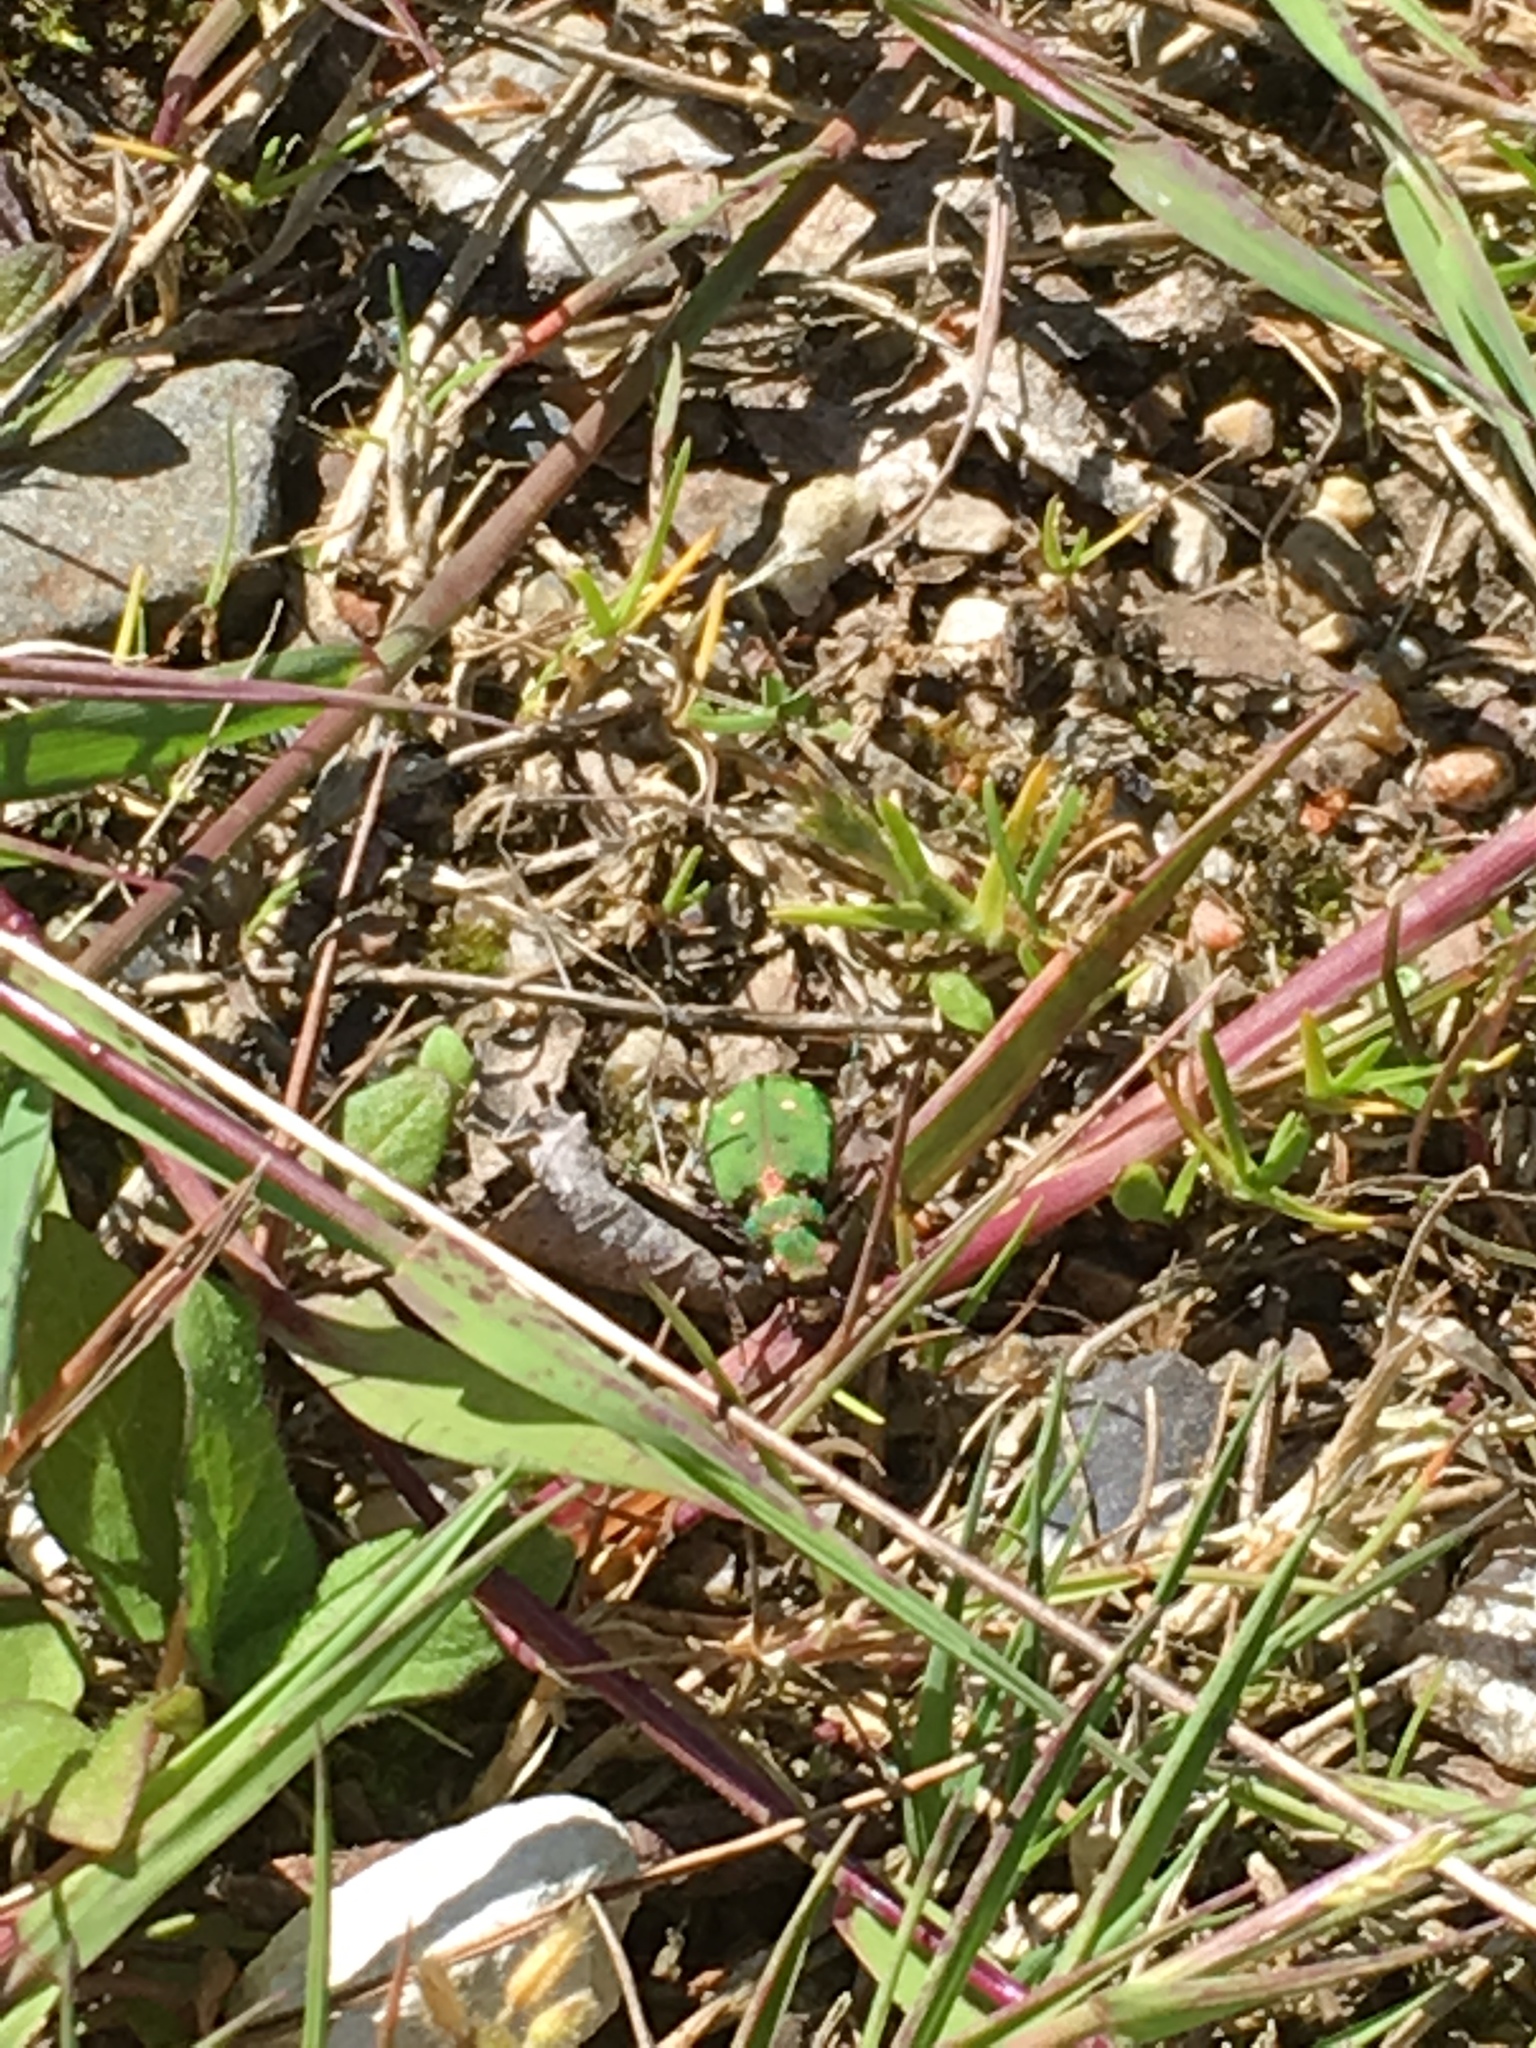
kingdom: Animalia
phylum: Arthropoda
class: Insecta
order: Coleoptera
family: Carabidae
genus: Cicindela
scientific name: Cicindela campestris
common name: Common tiger beetle
